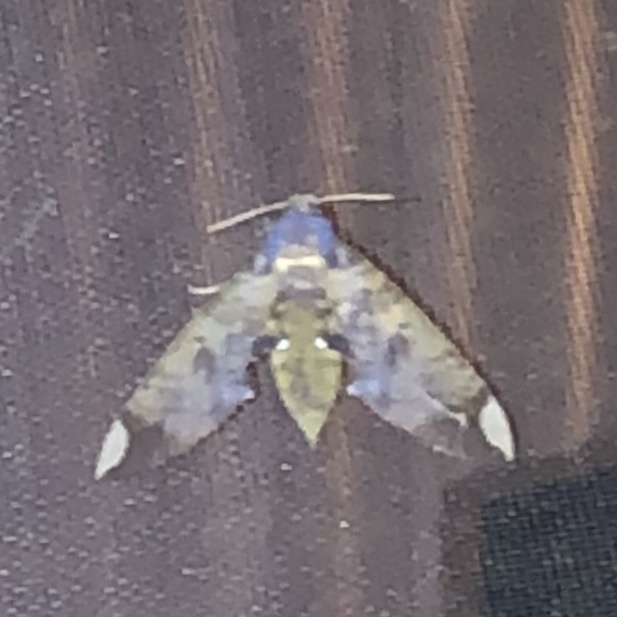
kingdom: Animalia
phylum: Arthropoda
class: Insecta
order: Lepidoptera
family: Sphingidae
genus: Pachylia
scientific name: Pachylia ficus
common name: Fig sphinx
